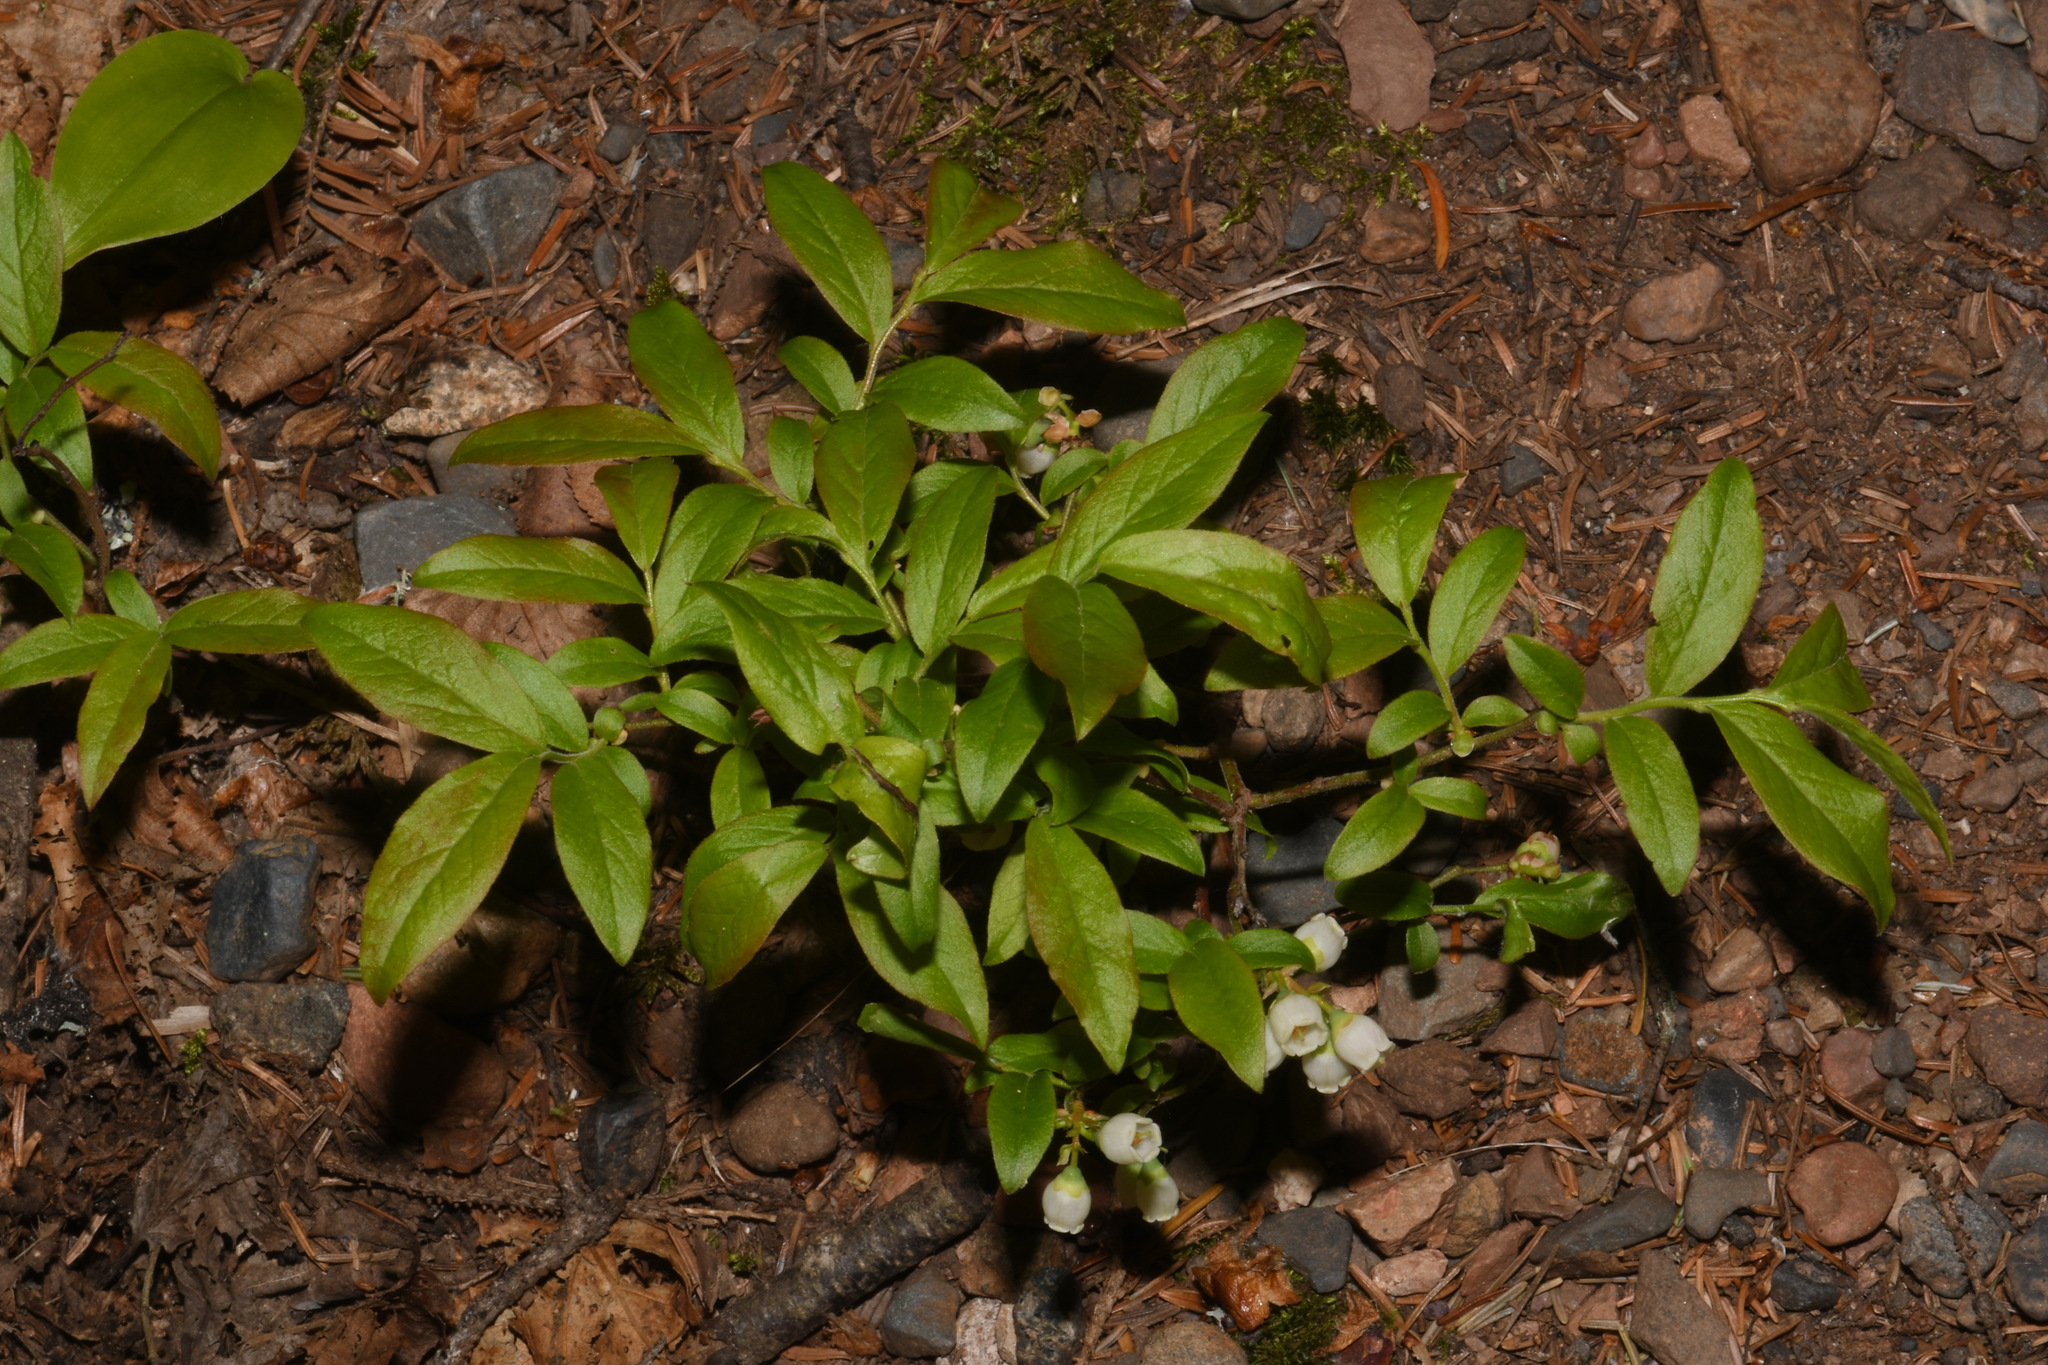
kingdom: Plantae
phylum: Tracheophyta
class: Magnoliopsida
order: Ericales
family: Ericaceae
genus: Vaccinium
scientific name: Vaccinium angustifolium
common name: Early lowbush blueberry
